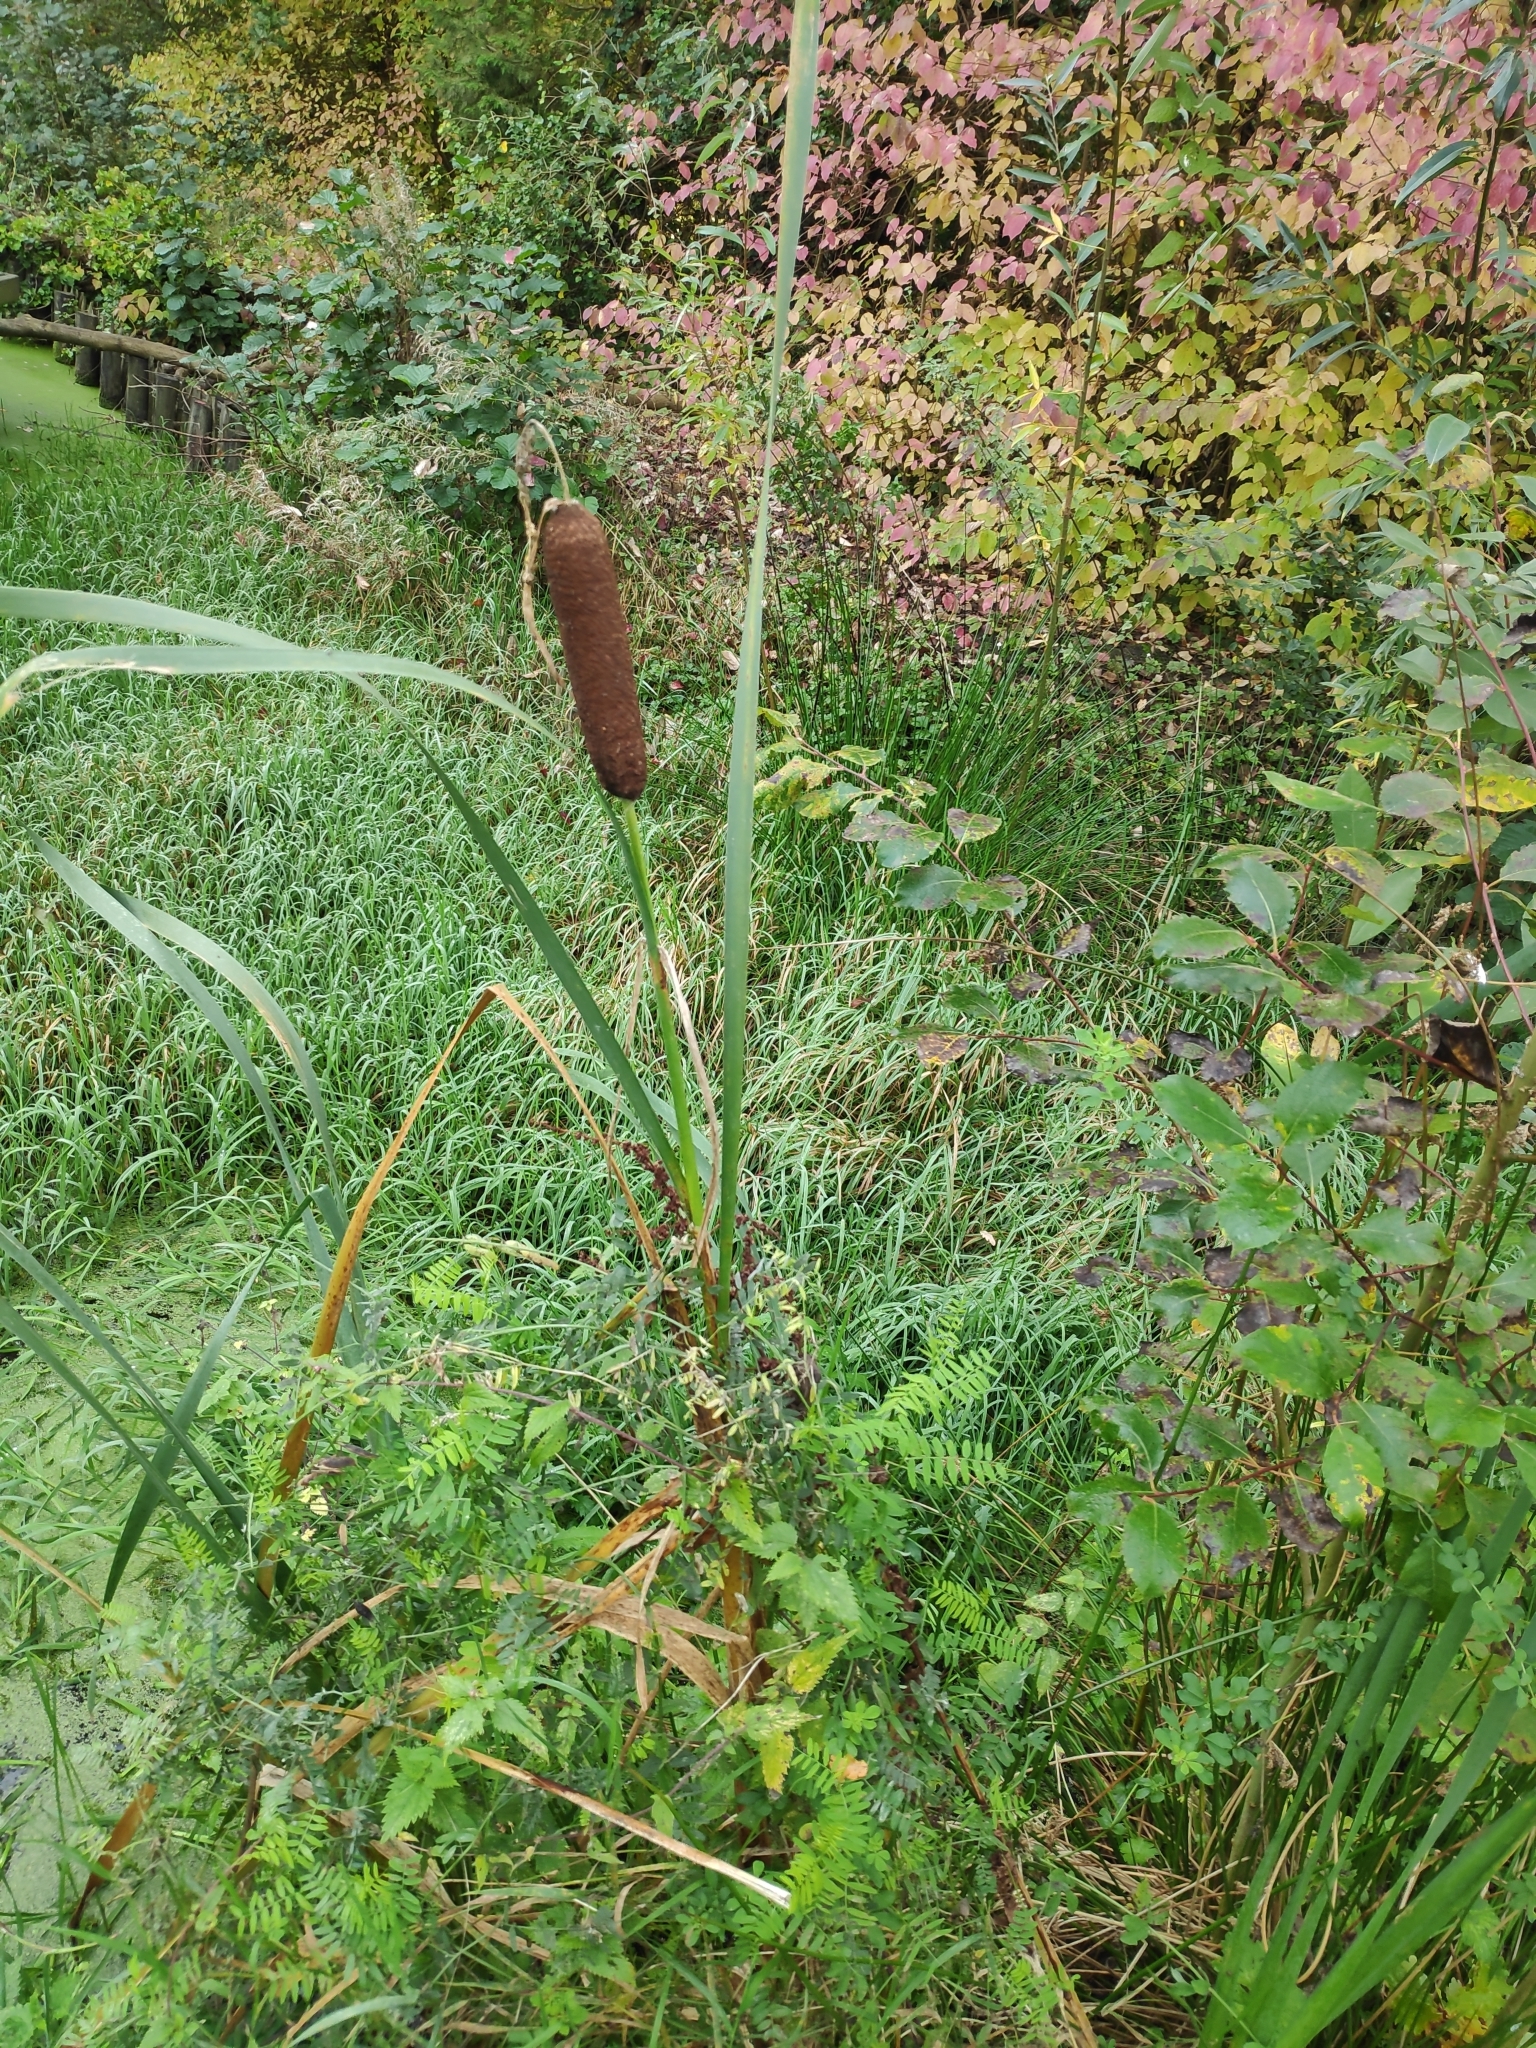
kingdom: Plantae
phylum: Tracheophyta
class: Liliopsida
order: Poales
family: Typhaceae
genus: Typha
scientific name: Typha latifolia
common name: Broadleaf cattail
